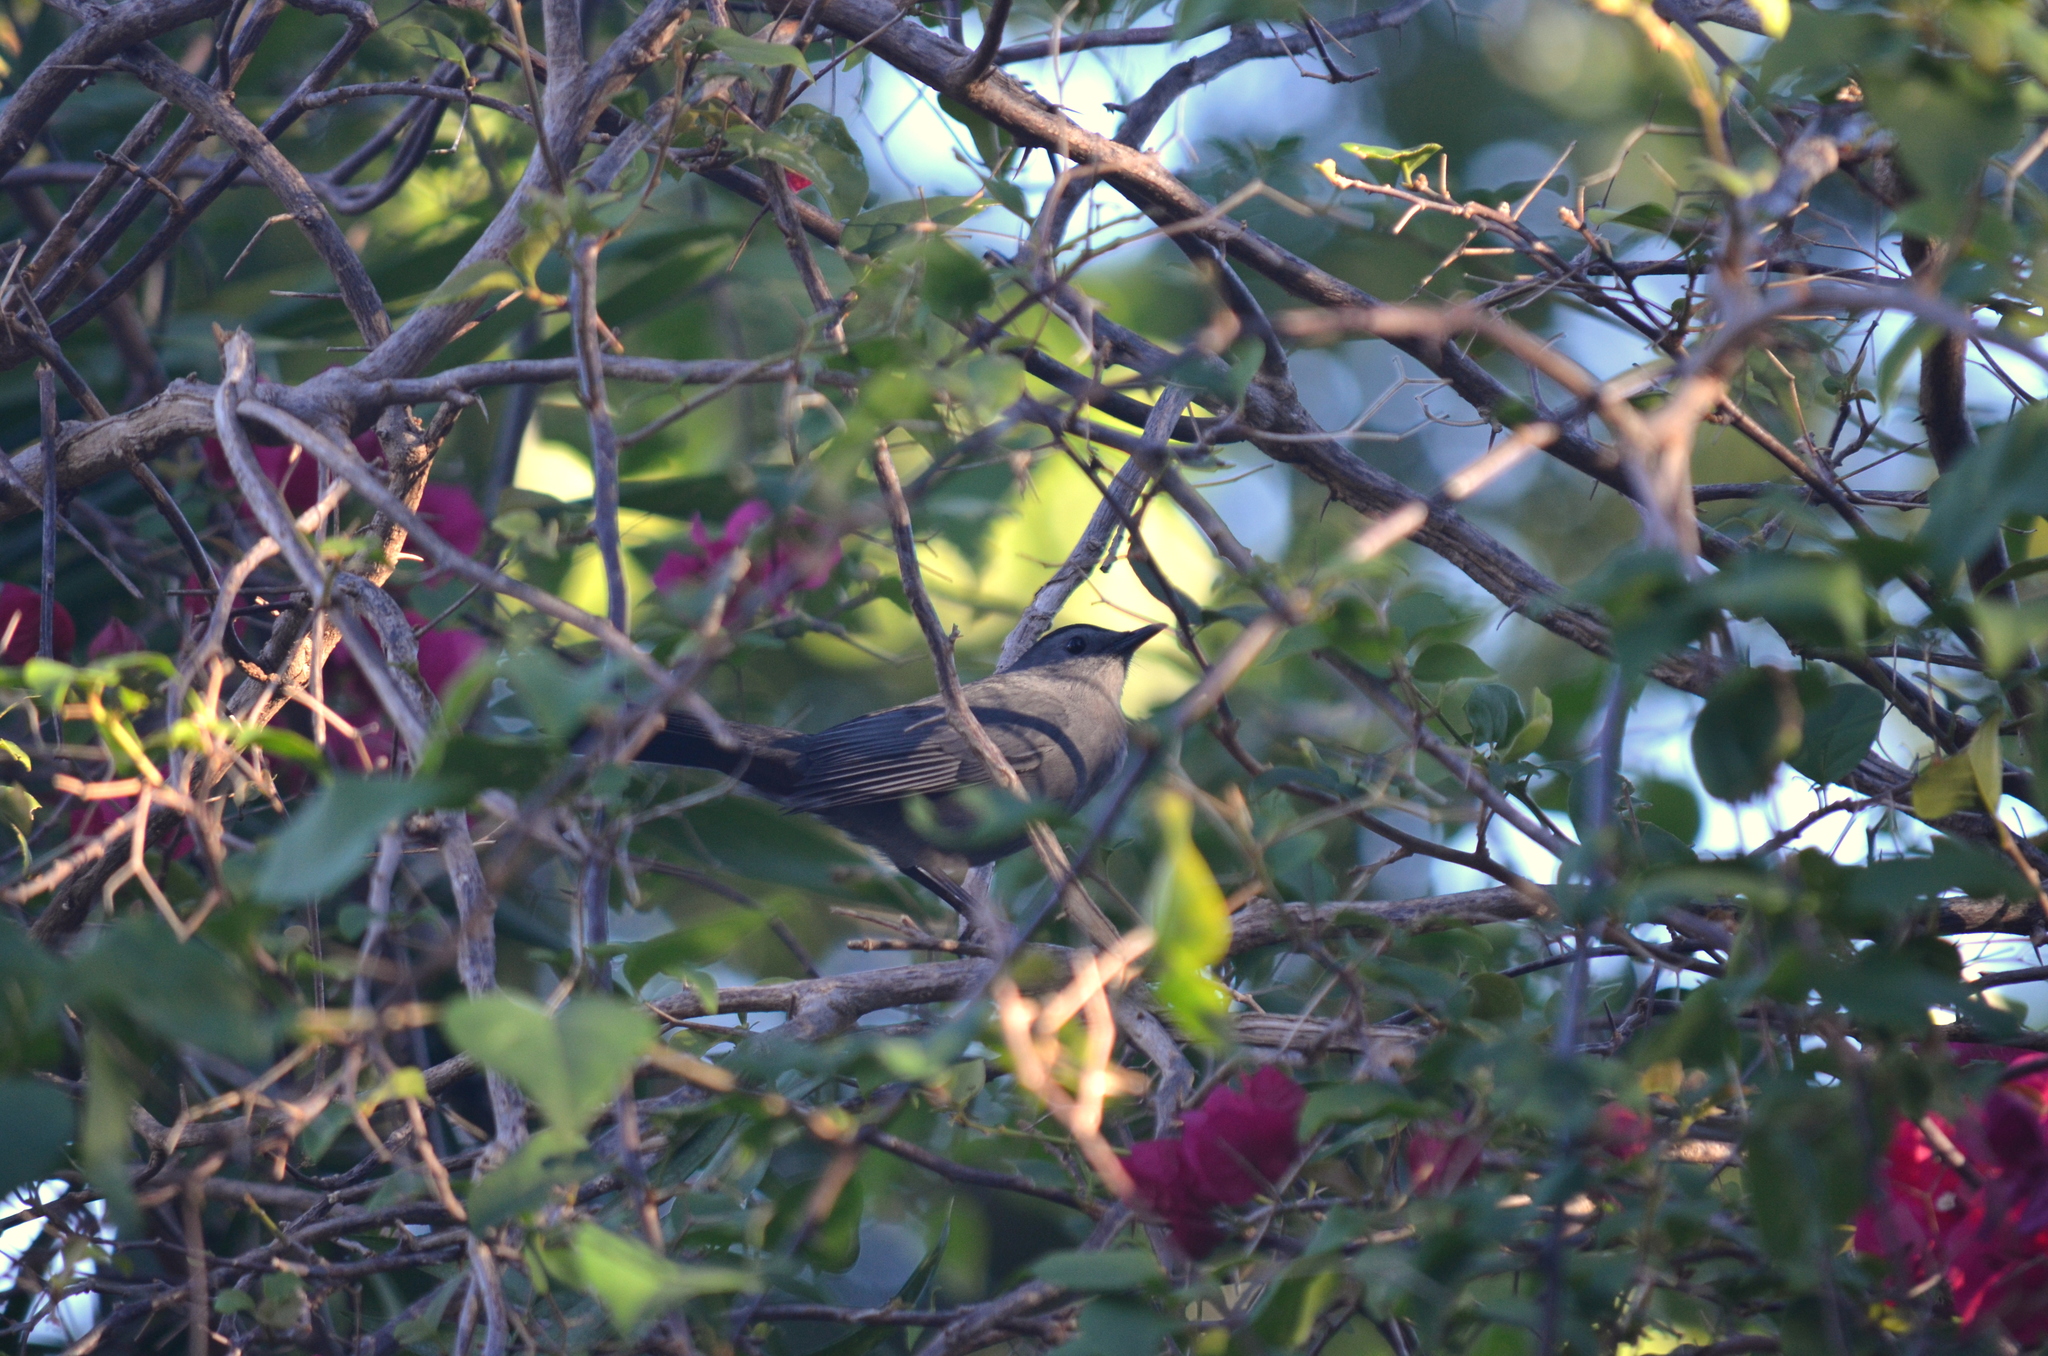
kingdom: Animalia
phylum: Chordata
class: Aves
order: Passeriformes
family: Mimidae
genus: Dumetella
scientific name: Dumetella carolinensis
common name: Gray catbird
